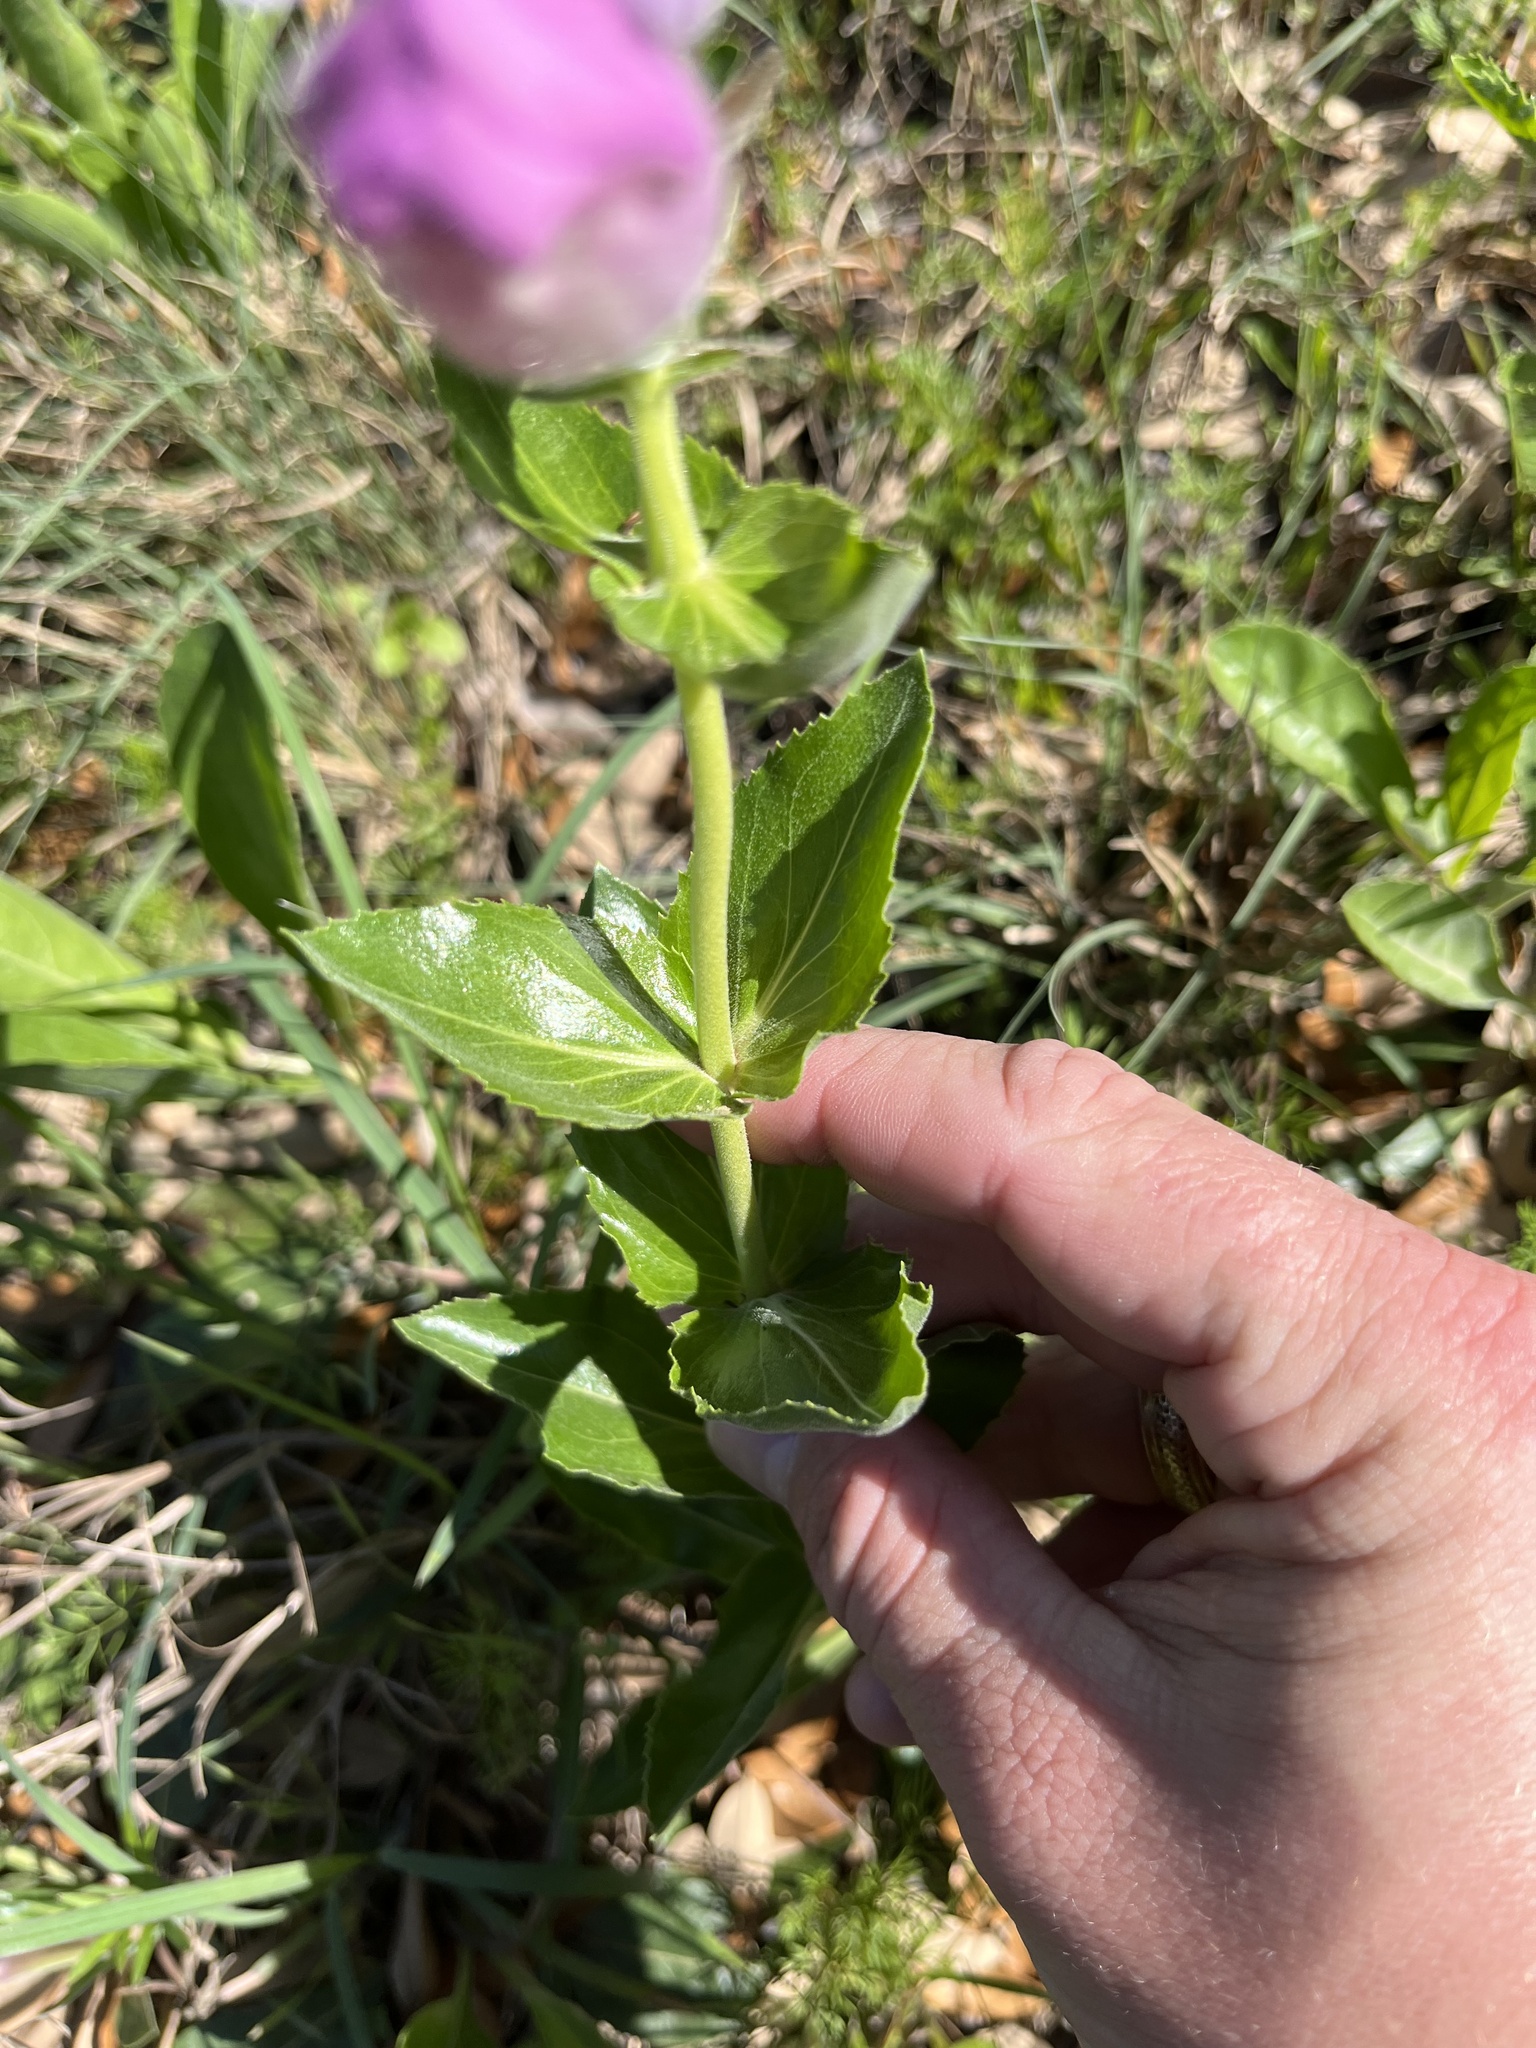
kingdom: Plantae
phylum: Tracheophyta
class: Magnoliopsida
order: Lamiales
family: Plantaginaceae
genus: Penstemon
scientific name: Penstemon cobaea
